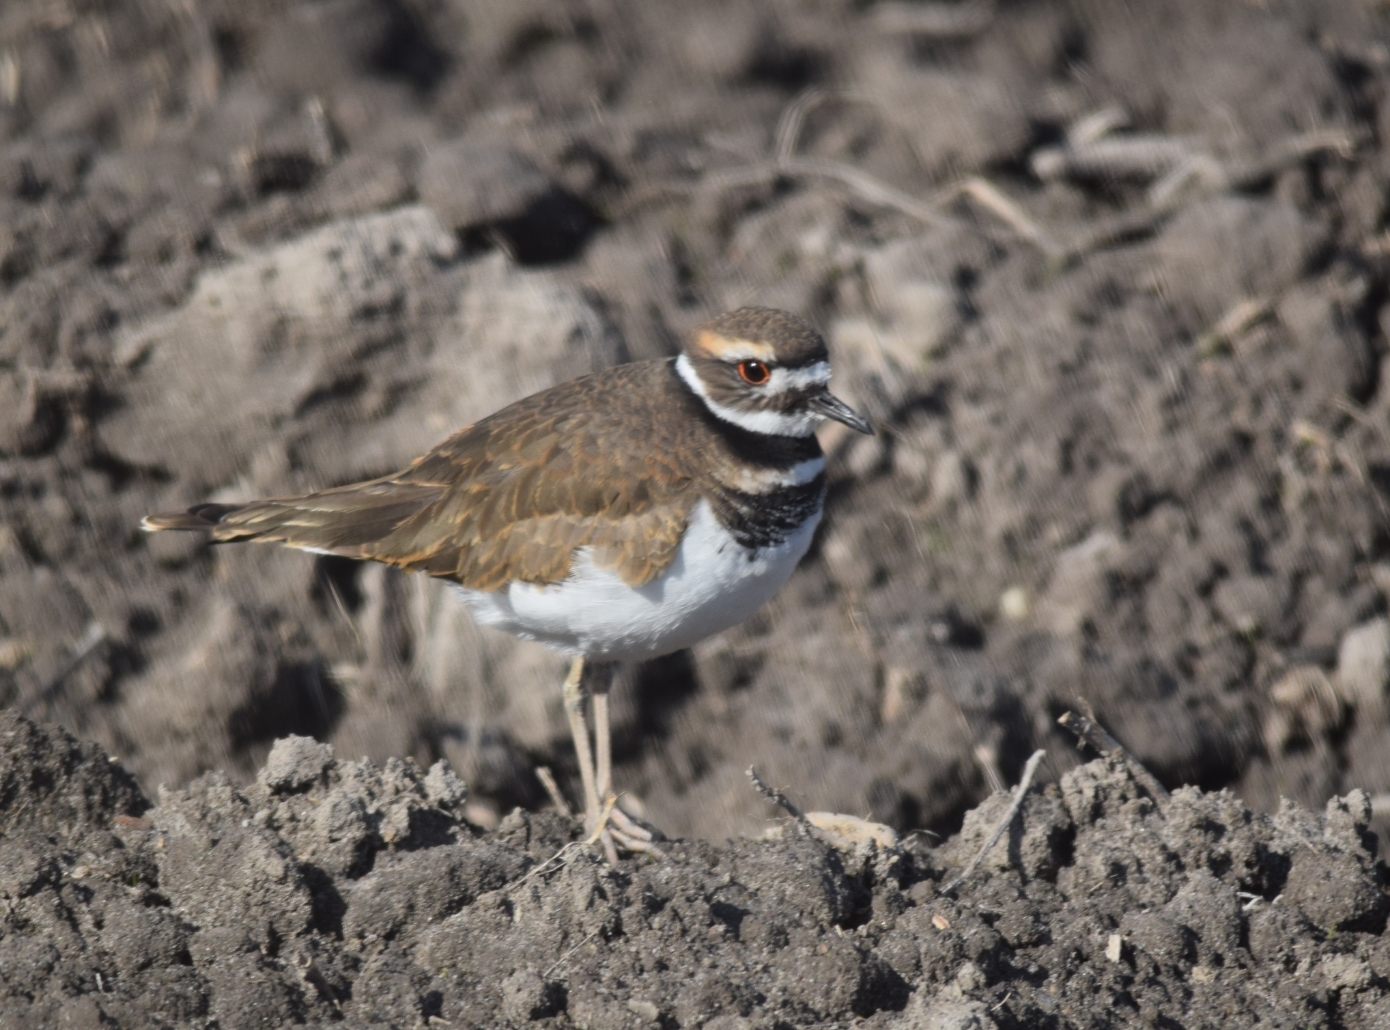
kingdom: Animalia
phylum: Chordata
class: Aves
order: Charadriiformes
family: Charadriidae
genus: Charadrius
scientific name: Charadrius vociferus
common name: Killdeer
